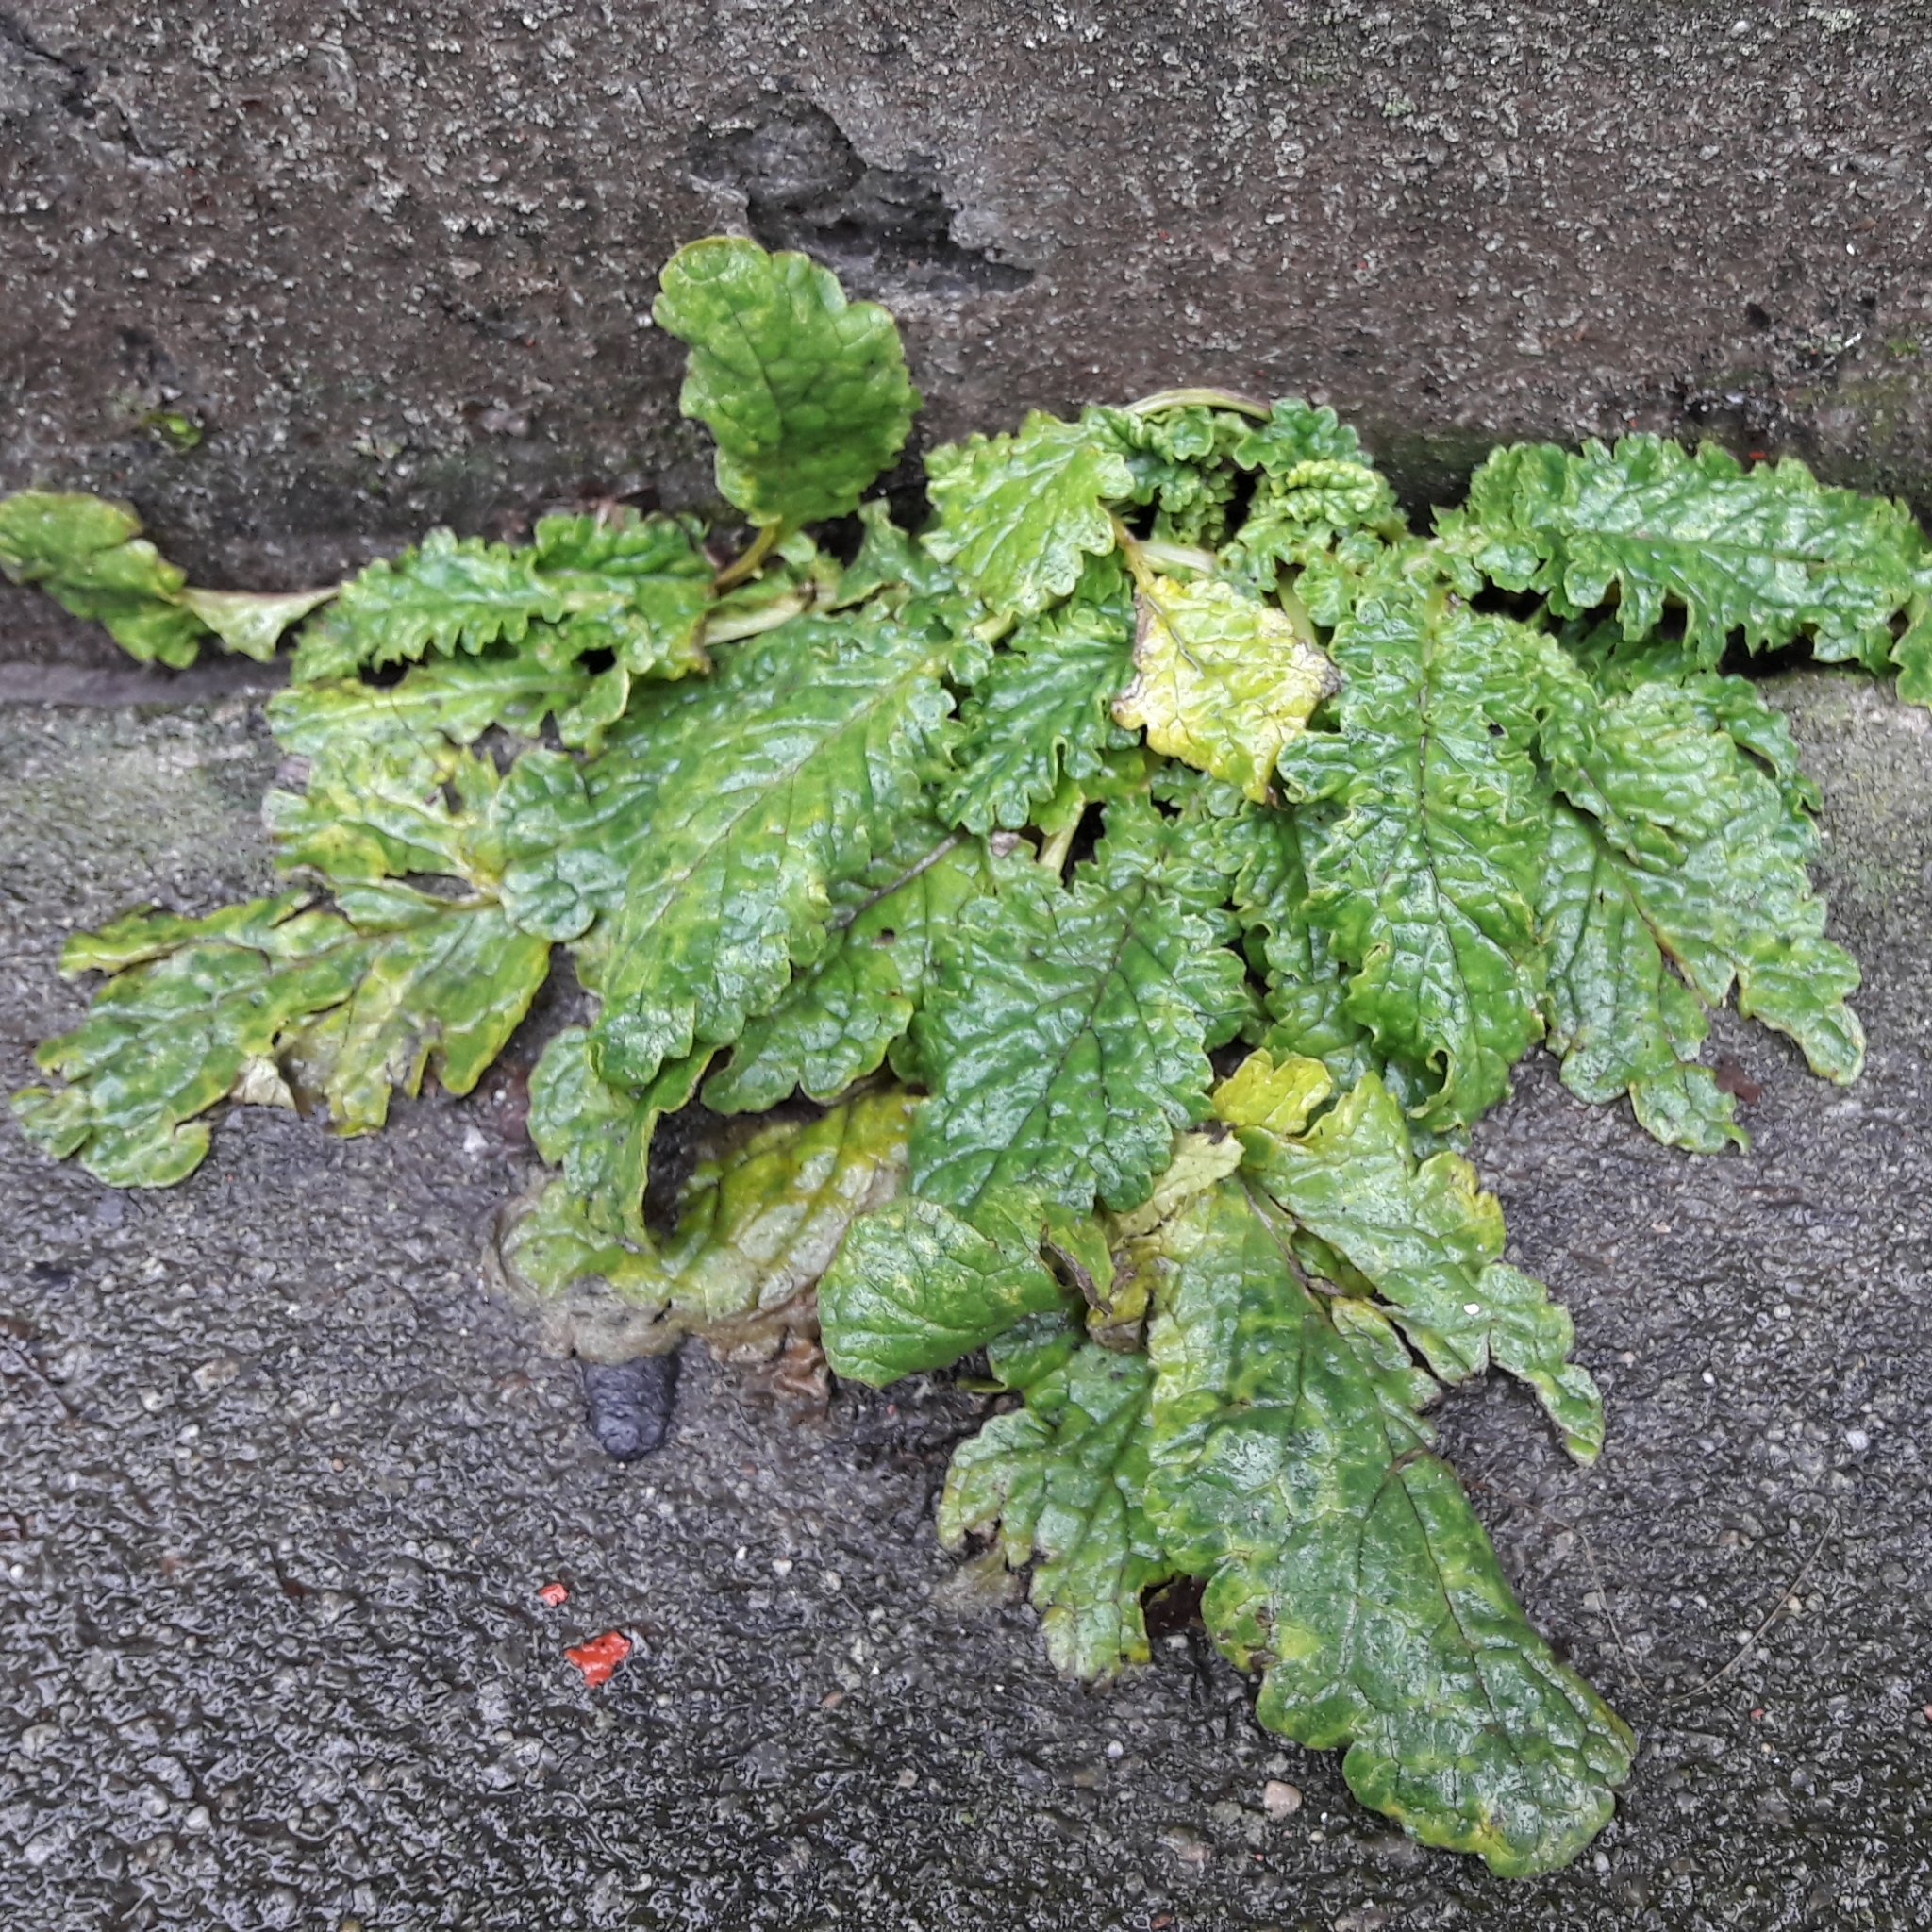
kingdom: Plantae
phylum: Tracheophyta
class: Magnoliopsida
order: Asterales
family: Asteraceae
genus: Jacobaea
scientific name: Jacobaea vulgaris
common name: Stinking willie
